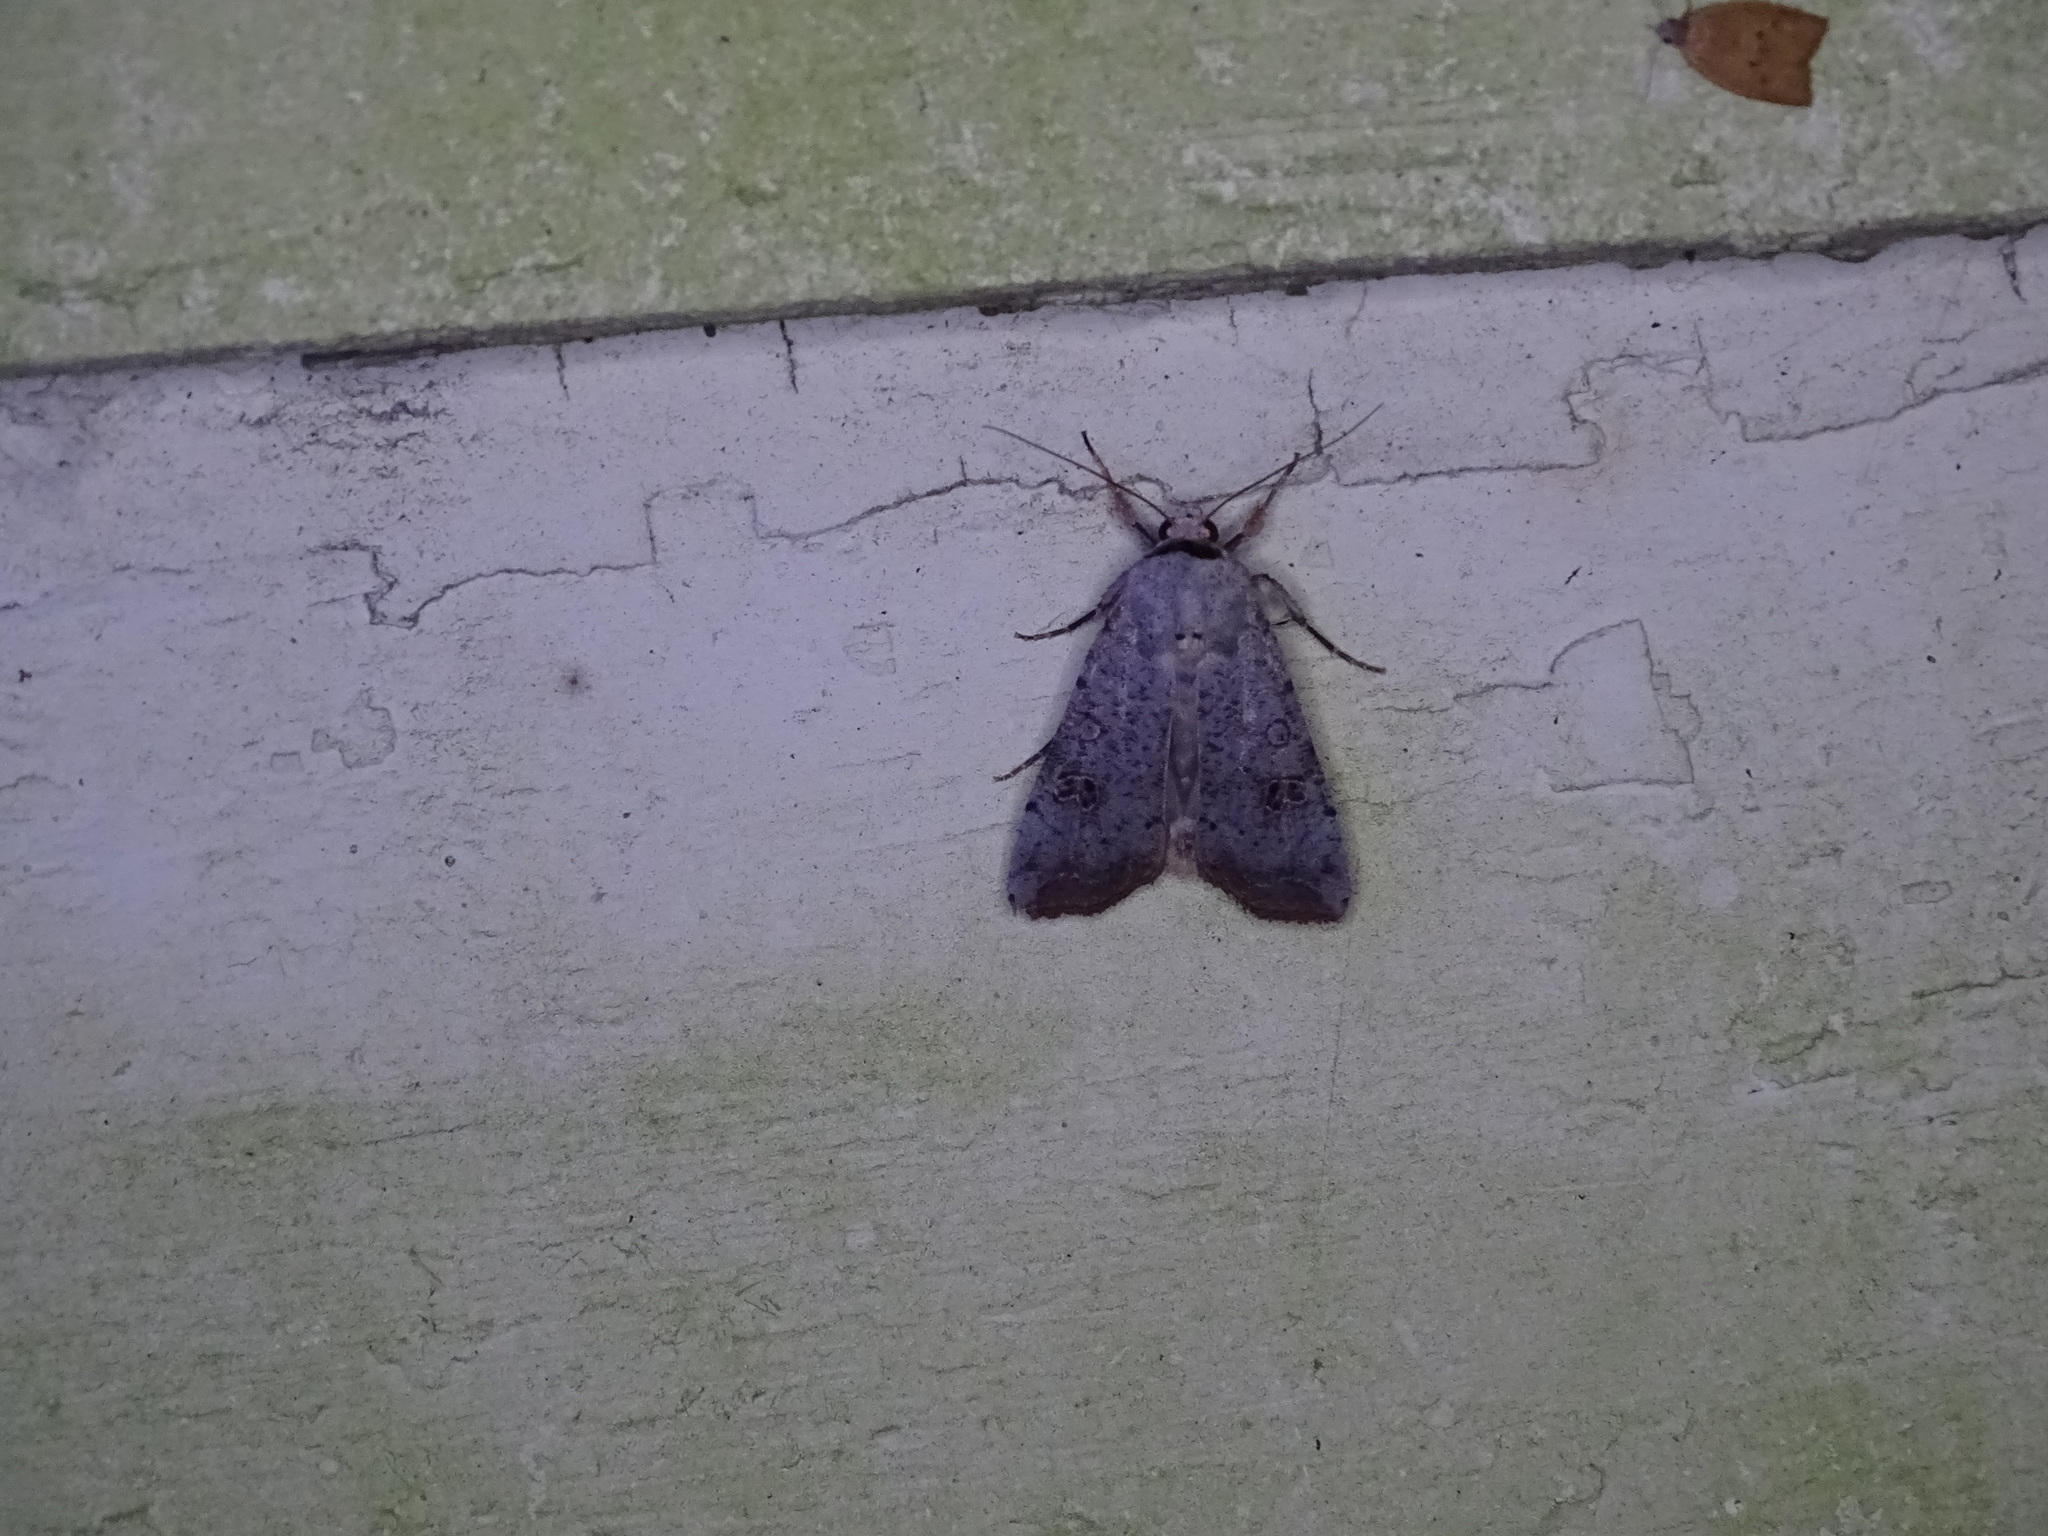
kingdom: Animalia
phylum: Arthropoda
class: Insecta
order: Lepidoptera
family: Noctuidae
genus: Anicla
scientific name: Anicla infecta
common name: Green cutworm
